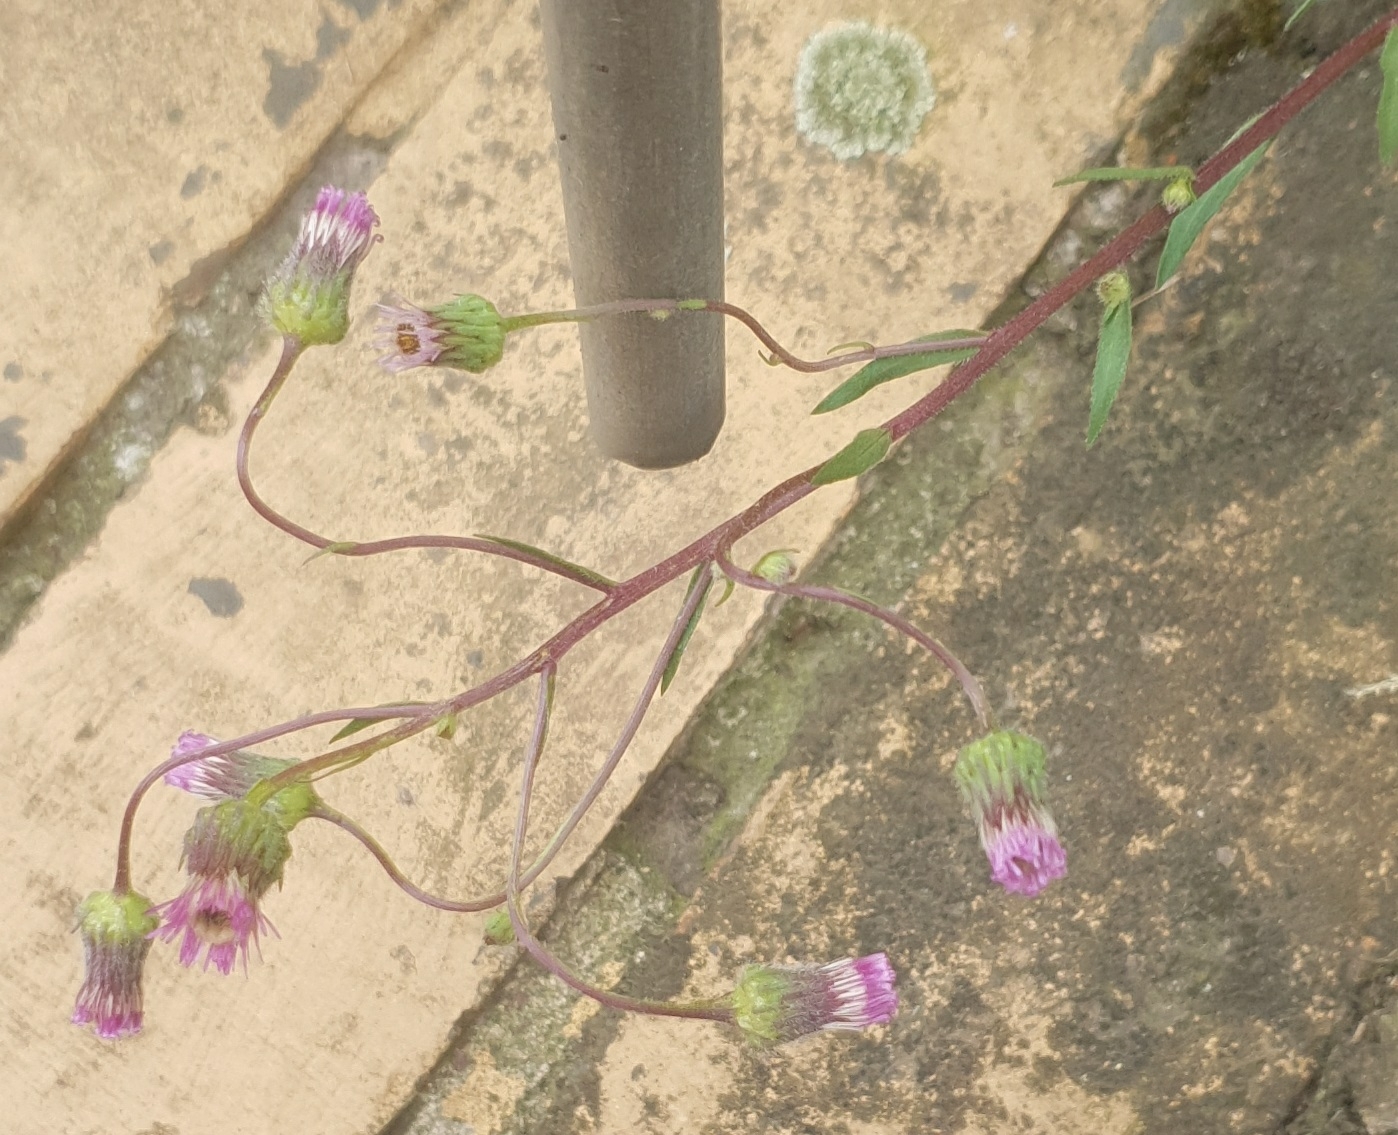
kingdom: Plantae
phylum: Tracheophyta
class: Magnoliopsida
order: Asterales
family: Asteraceae
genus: Erigeron
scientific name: Erigeron acris
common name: Blue fleabane
